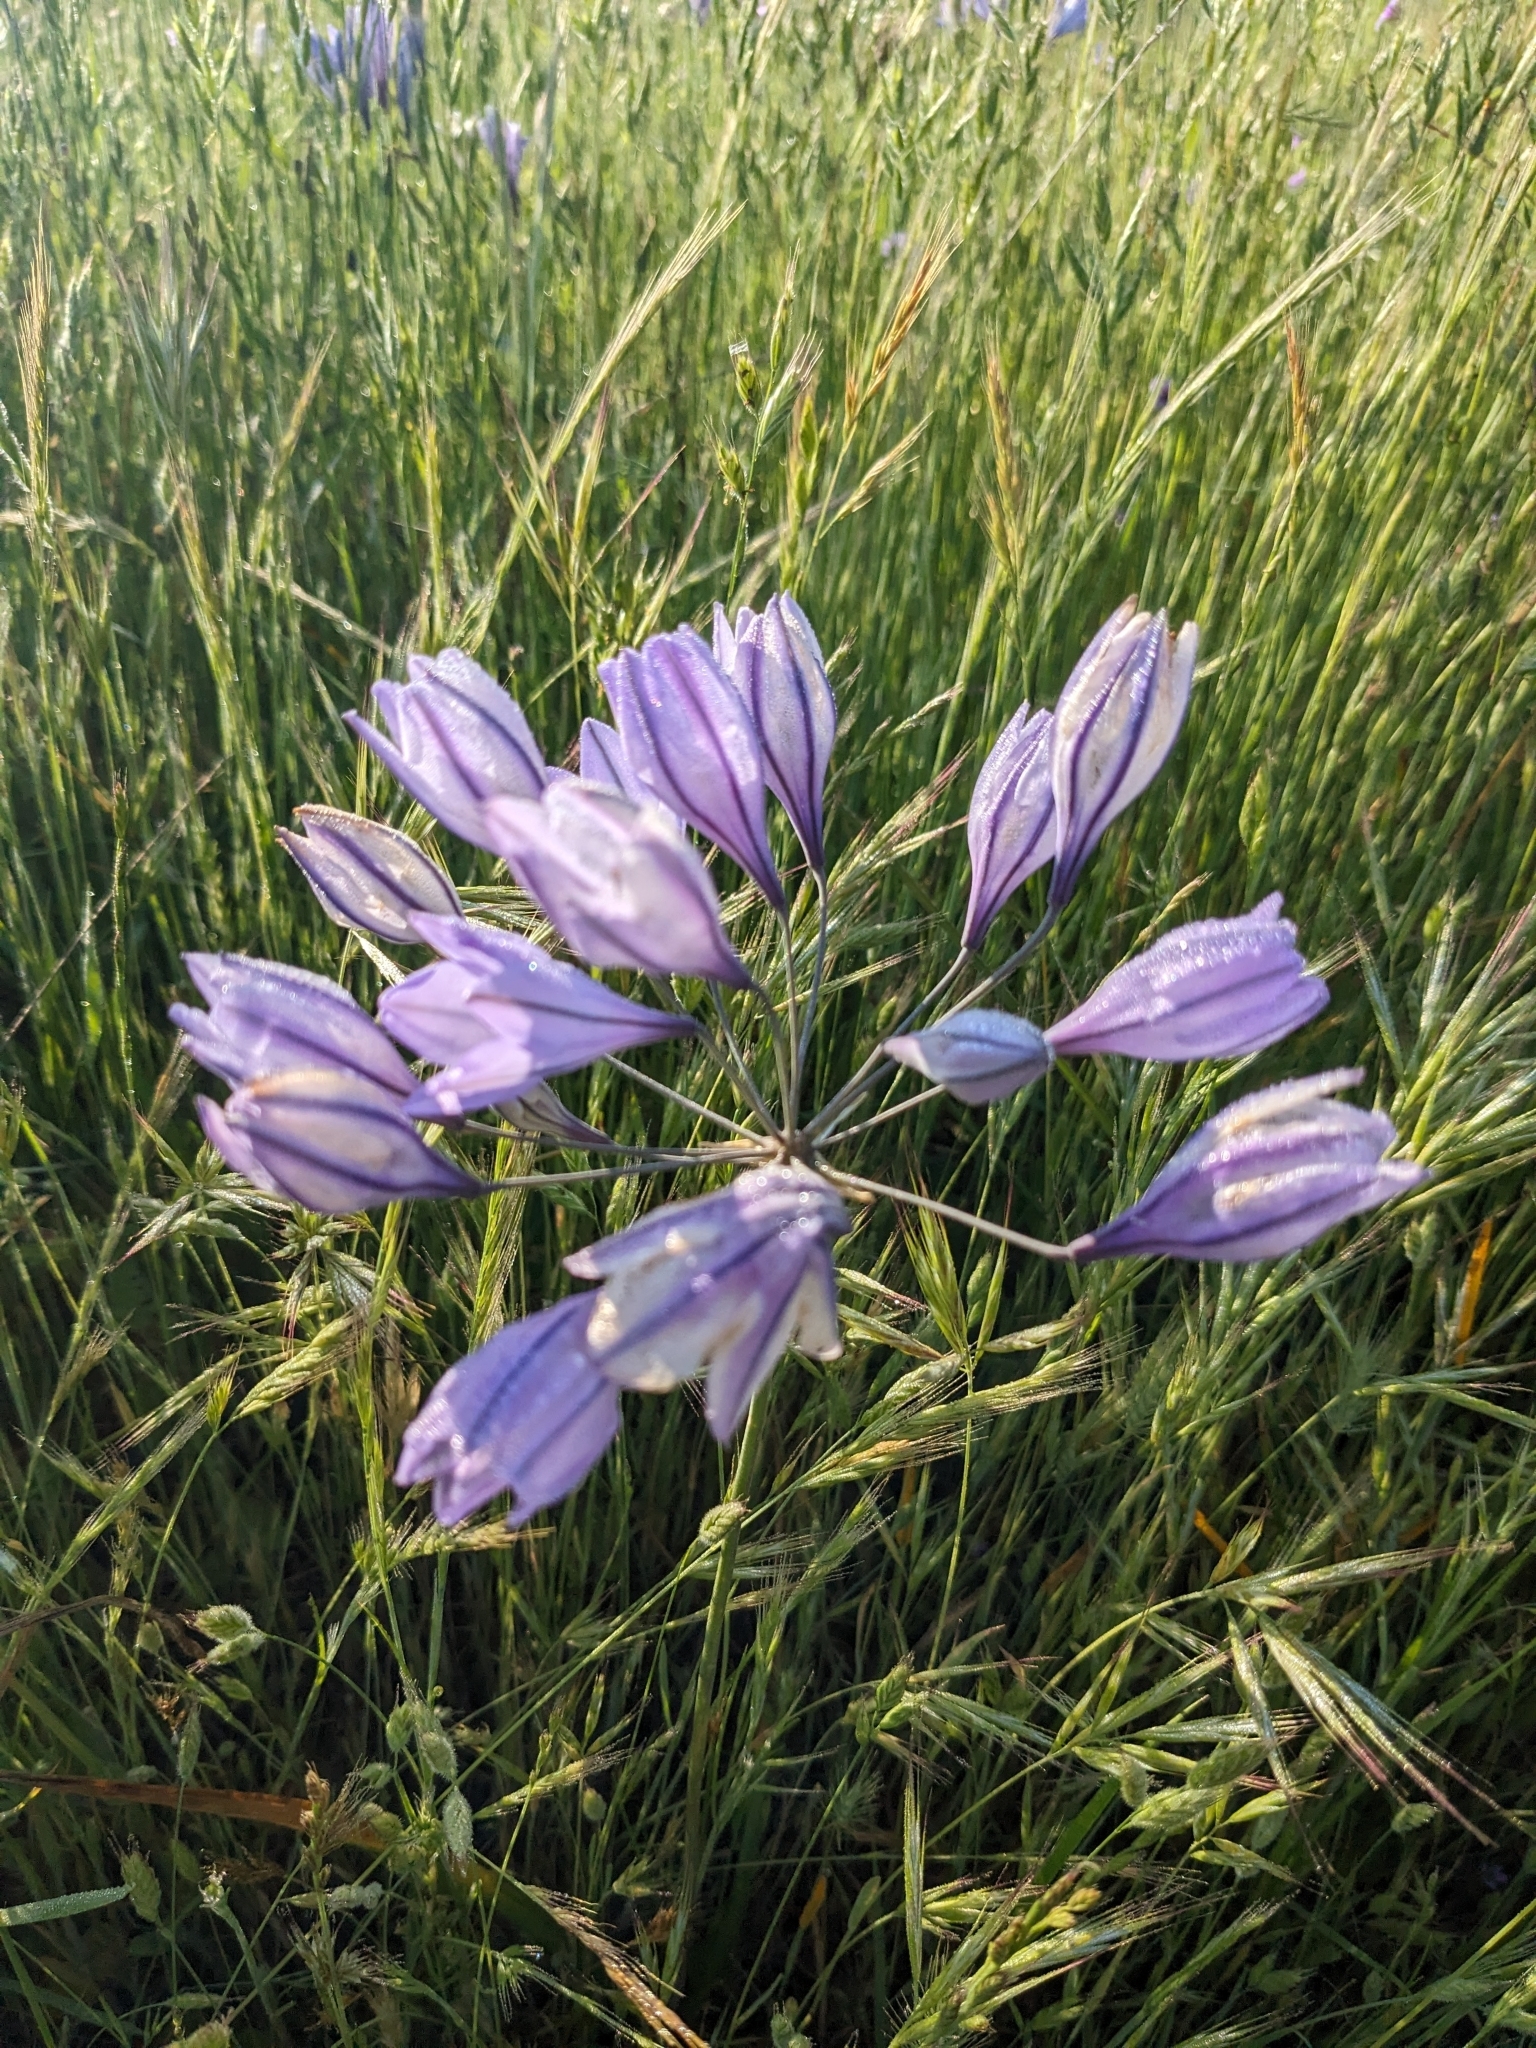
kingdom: Plantae
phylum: Tracheophyta
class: Liliopsida
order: Asparagales
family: Asparagaceae
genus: Triteleia
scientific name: Triteleia laxa
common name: Triplet-lily
